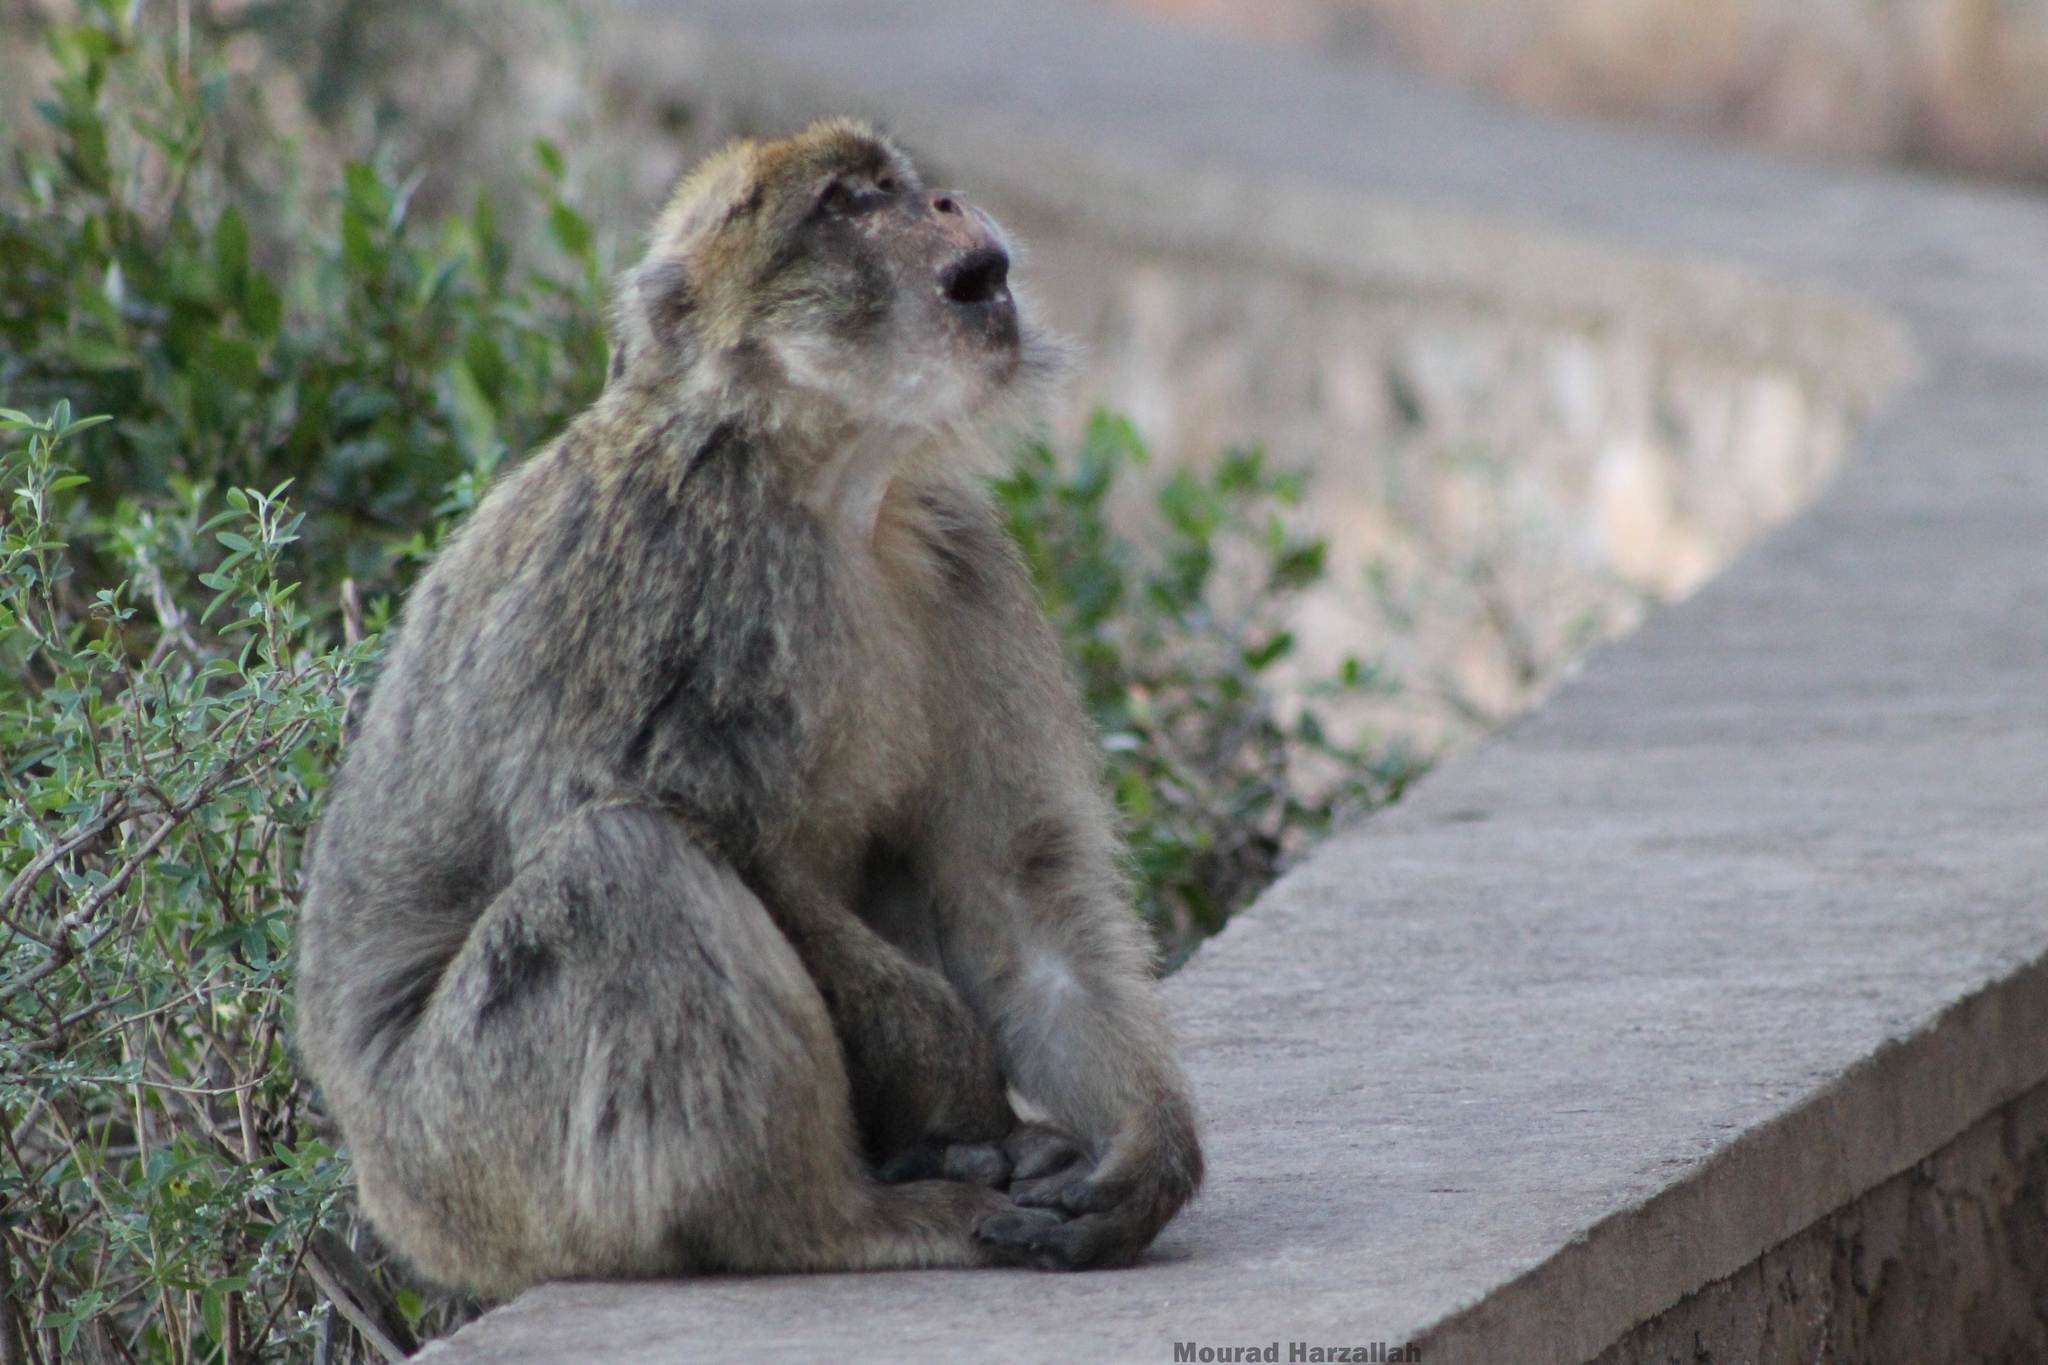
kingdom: Animalia
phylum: Chordata
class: Mammalia
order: Primates
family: Cercopithecidae
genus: Macaca
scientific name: Macaca sylvanus
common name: Barbary macaque
